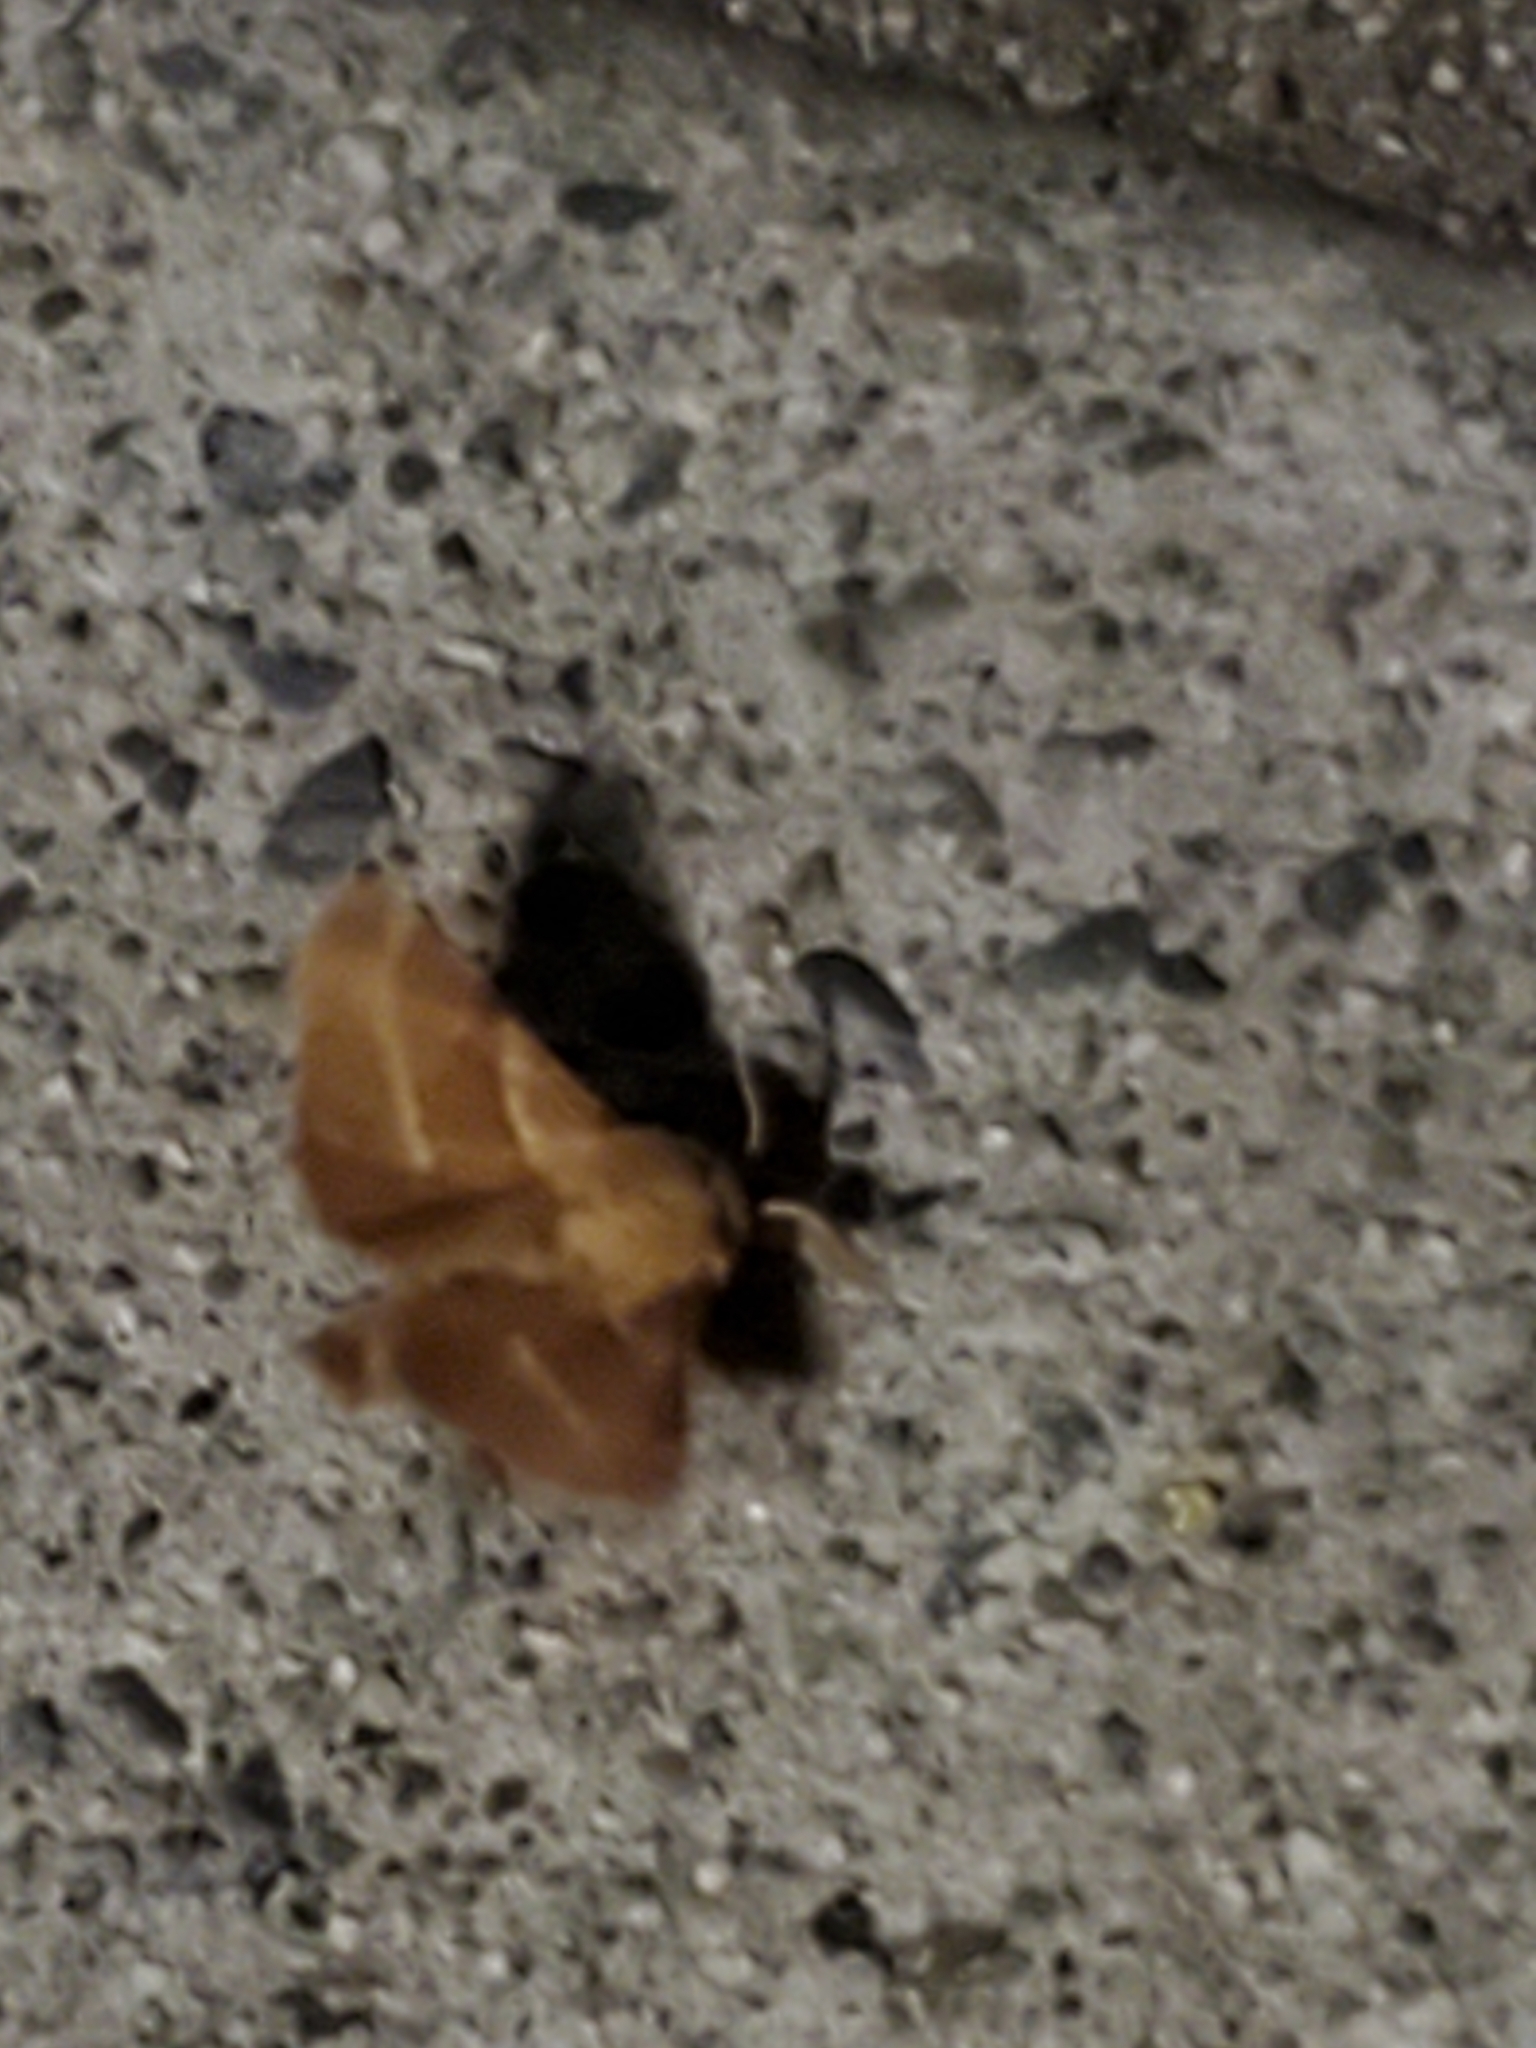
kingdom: Animalia
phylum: Arthropoda
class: Insecta
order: Lepidoptera
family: Lasiocampidae
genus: Malacosoma
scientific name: Malacosoma californica
